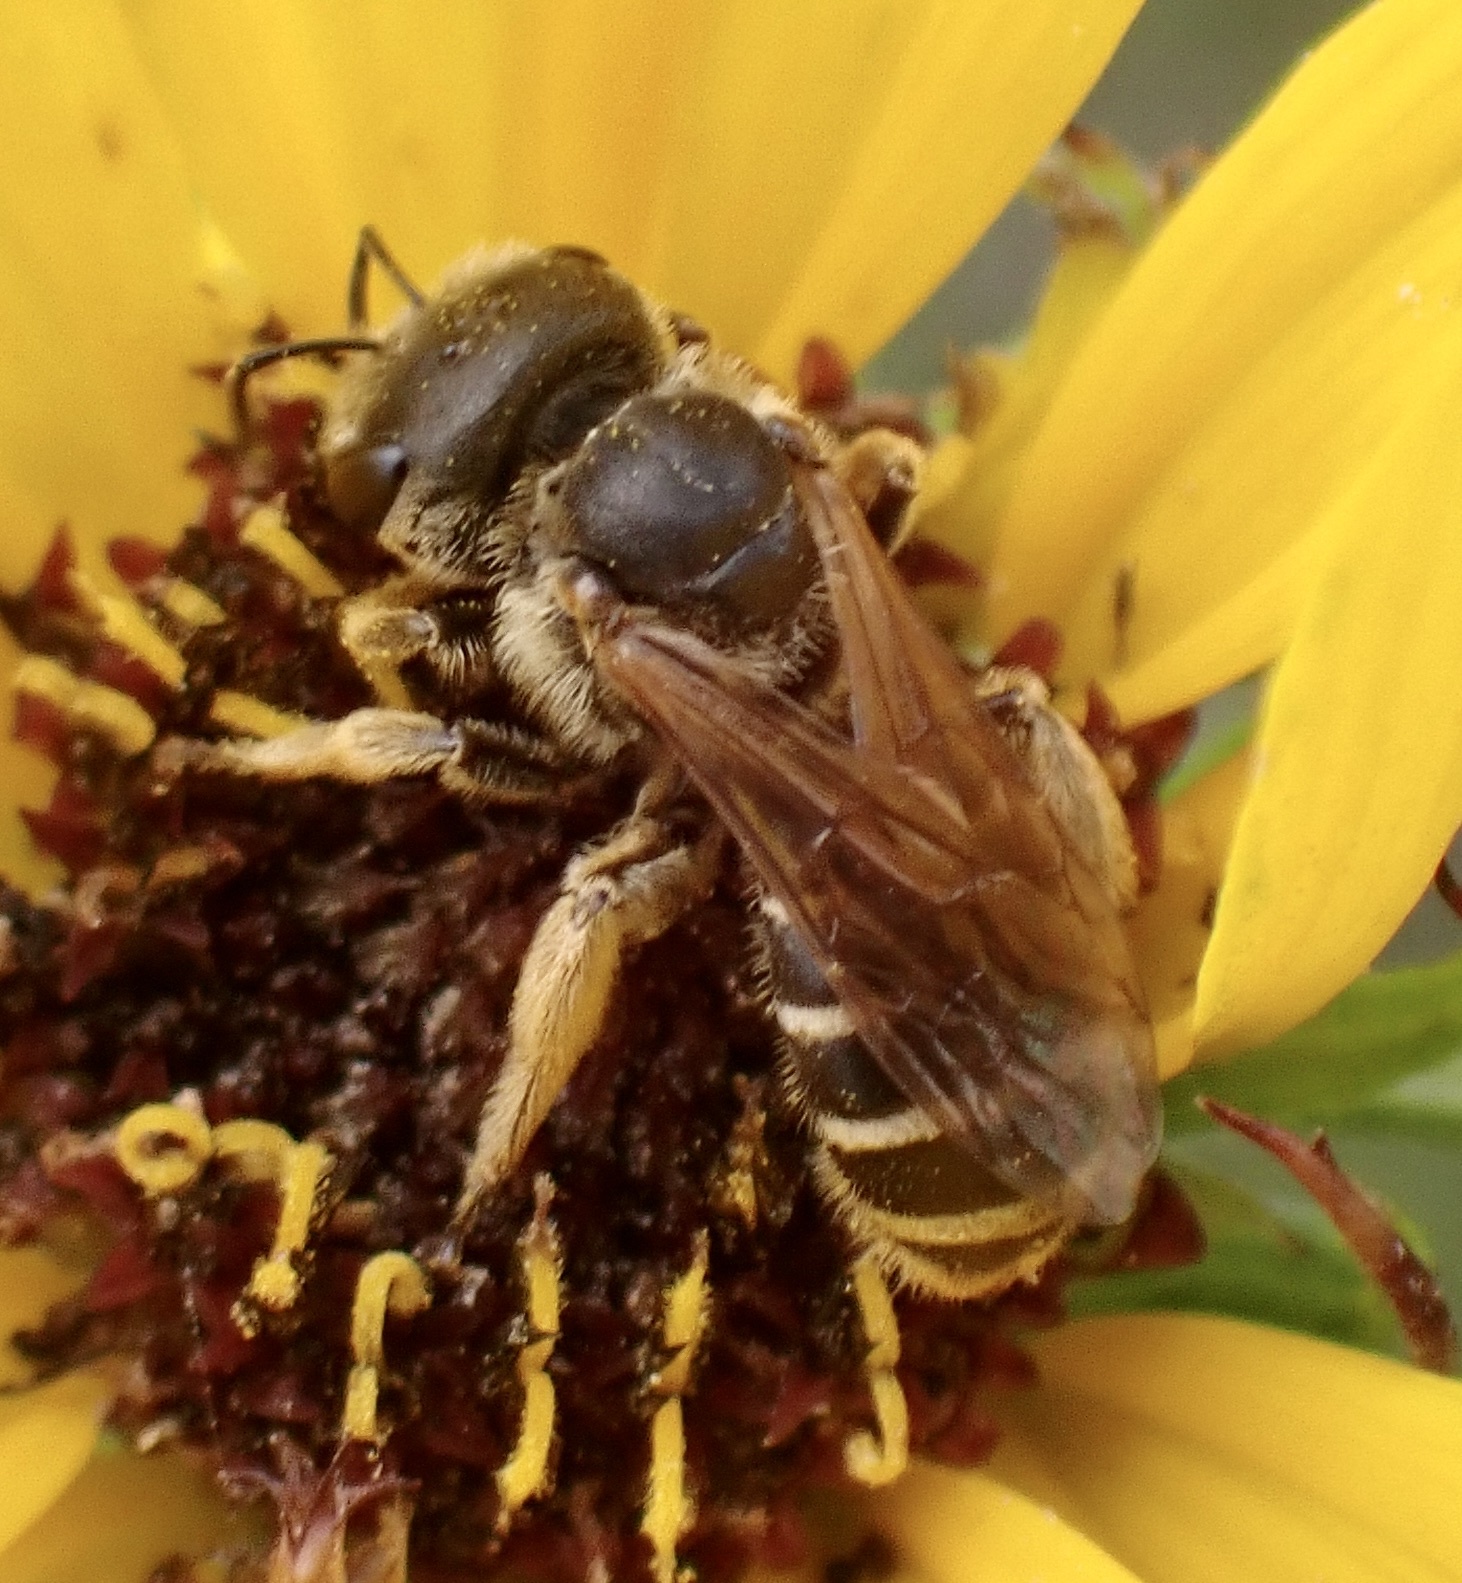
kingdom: Animalia
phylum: Arthropoda
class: Insecta
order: Hymenoptera
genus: Odontalictus
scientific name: Odontalictus
